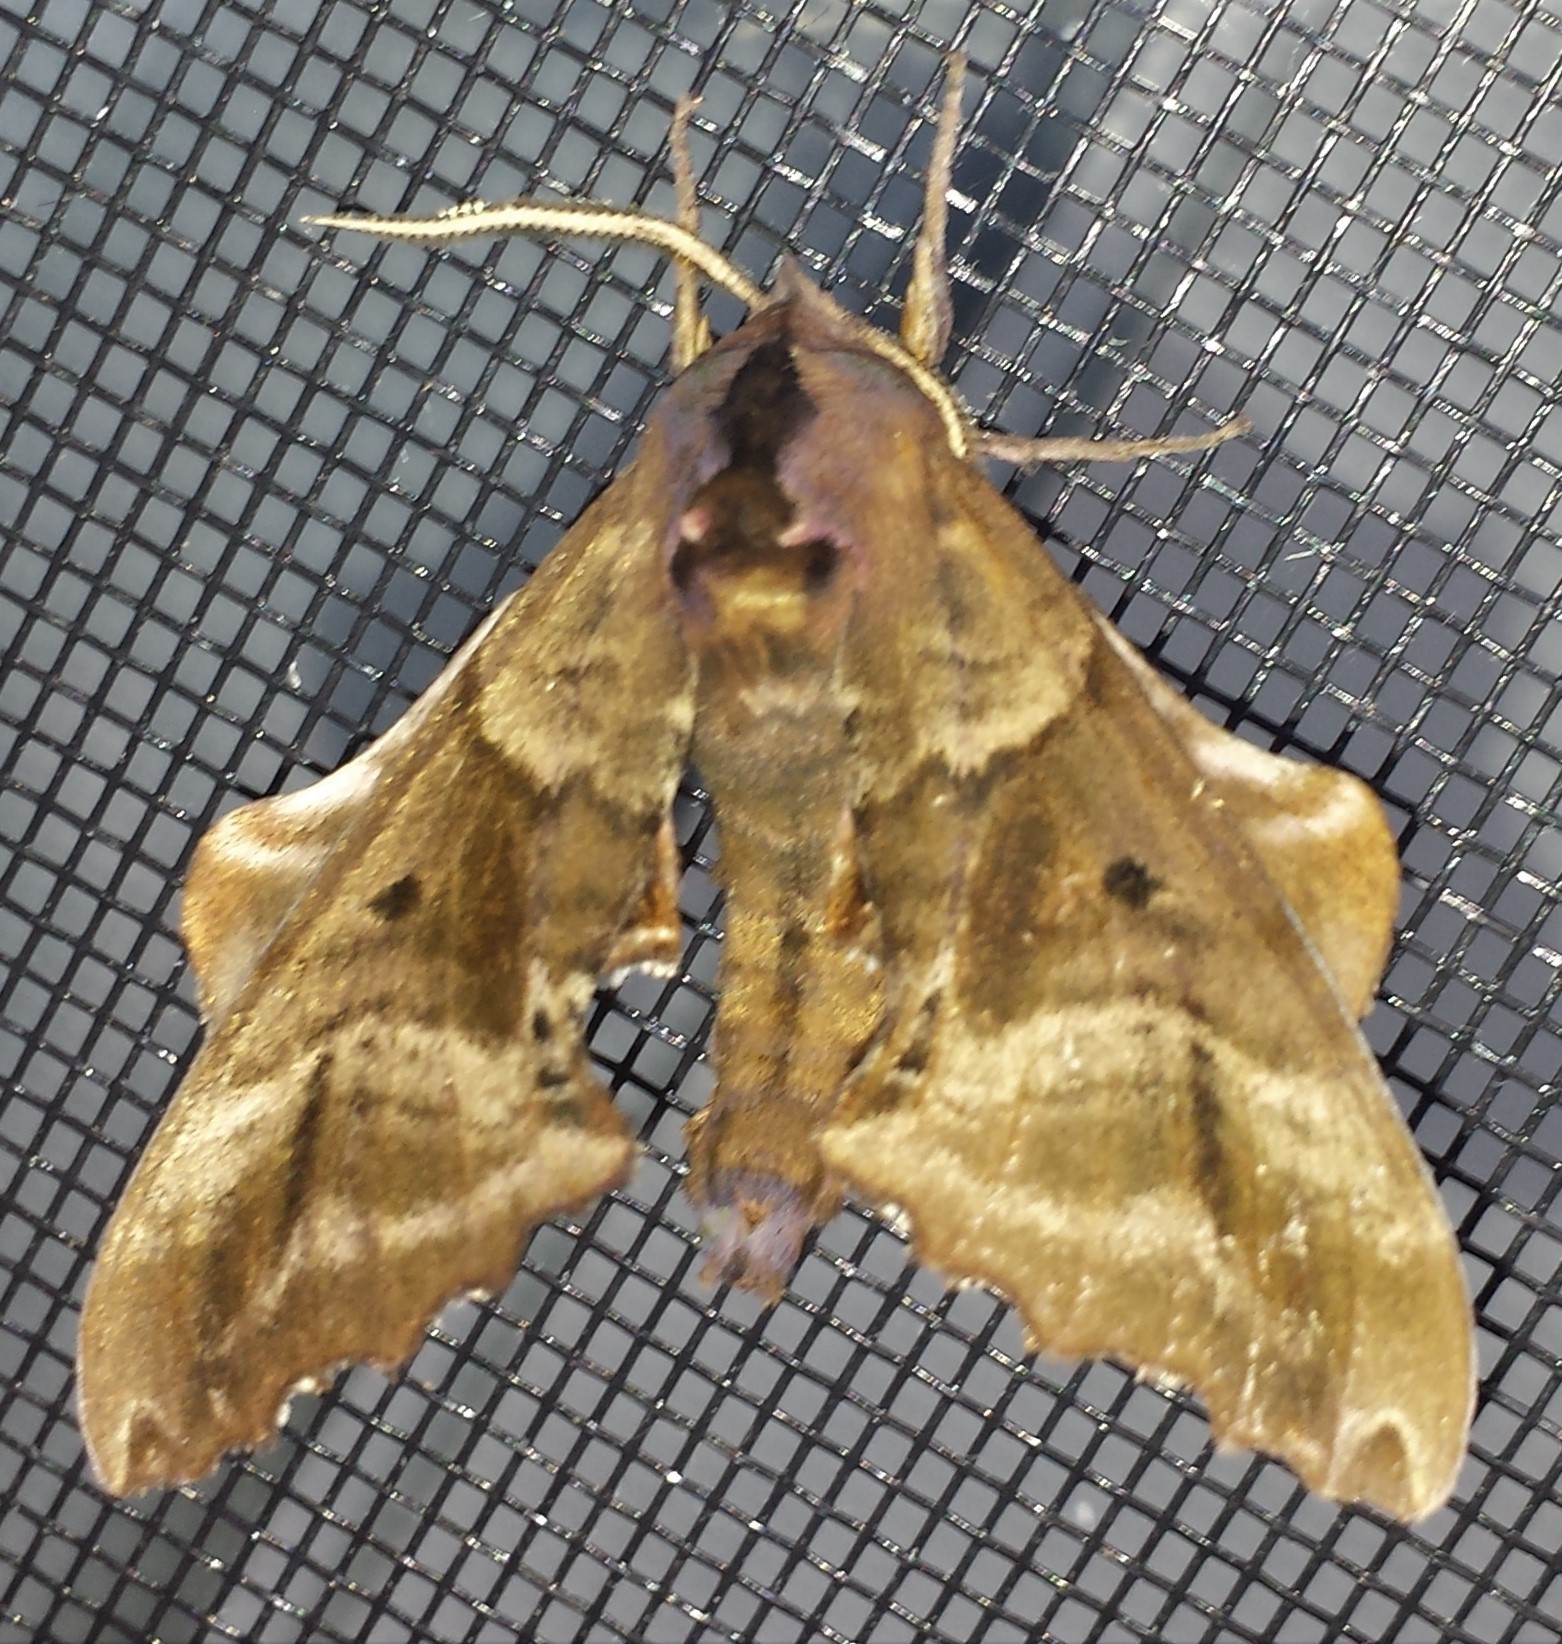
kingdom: Animalia
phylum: Arthropoda
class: Insecta
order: Lepidoptera
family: Sphingidae
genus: Paonias
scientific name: Paonias excaecata
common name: Blind-eyed sphinx
